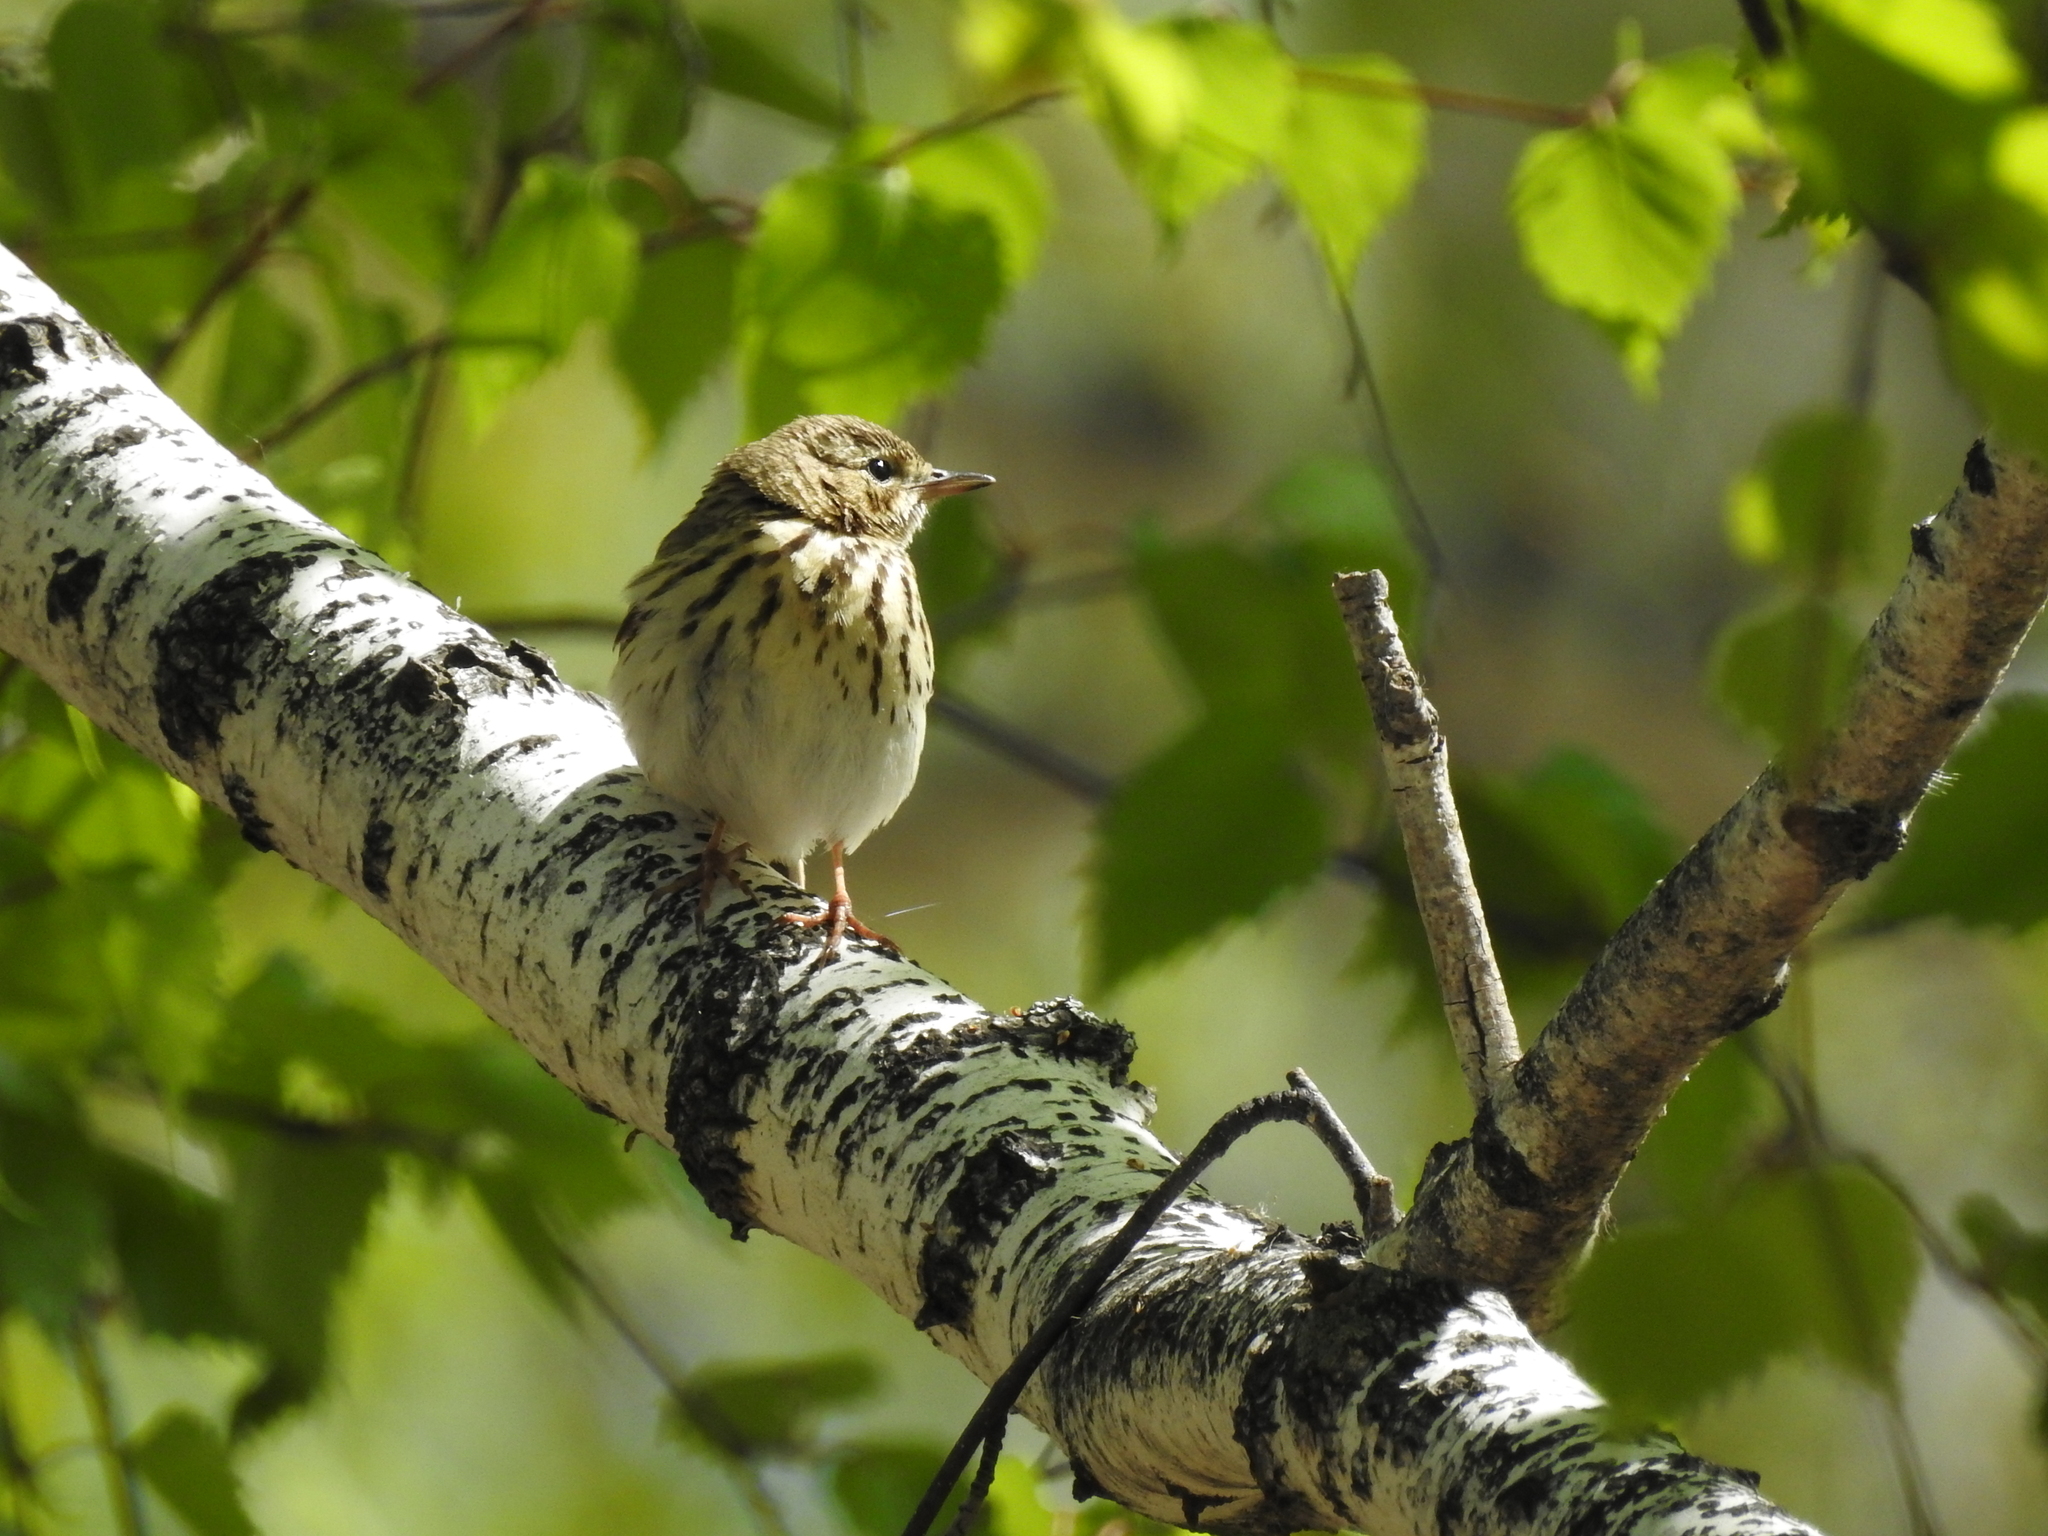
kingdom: Animalia
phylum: Chordata
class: Aves
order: Passeriformes
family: Motacillidae
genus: Anthus
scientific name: Anthus trivialis
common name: Tree pipit
